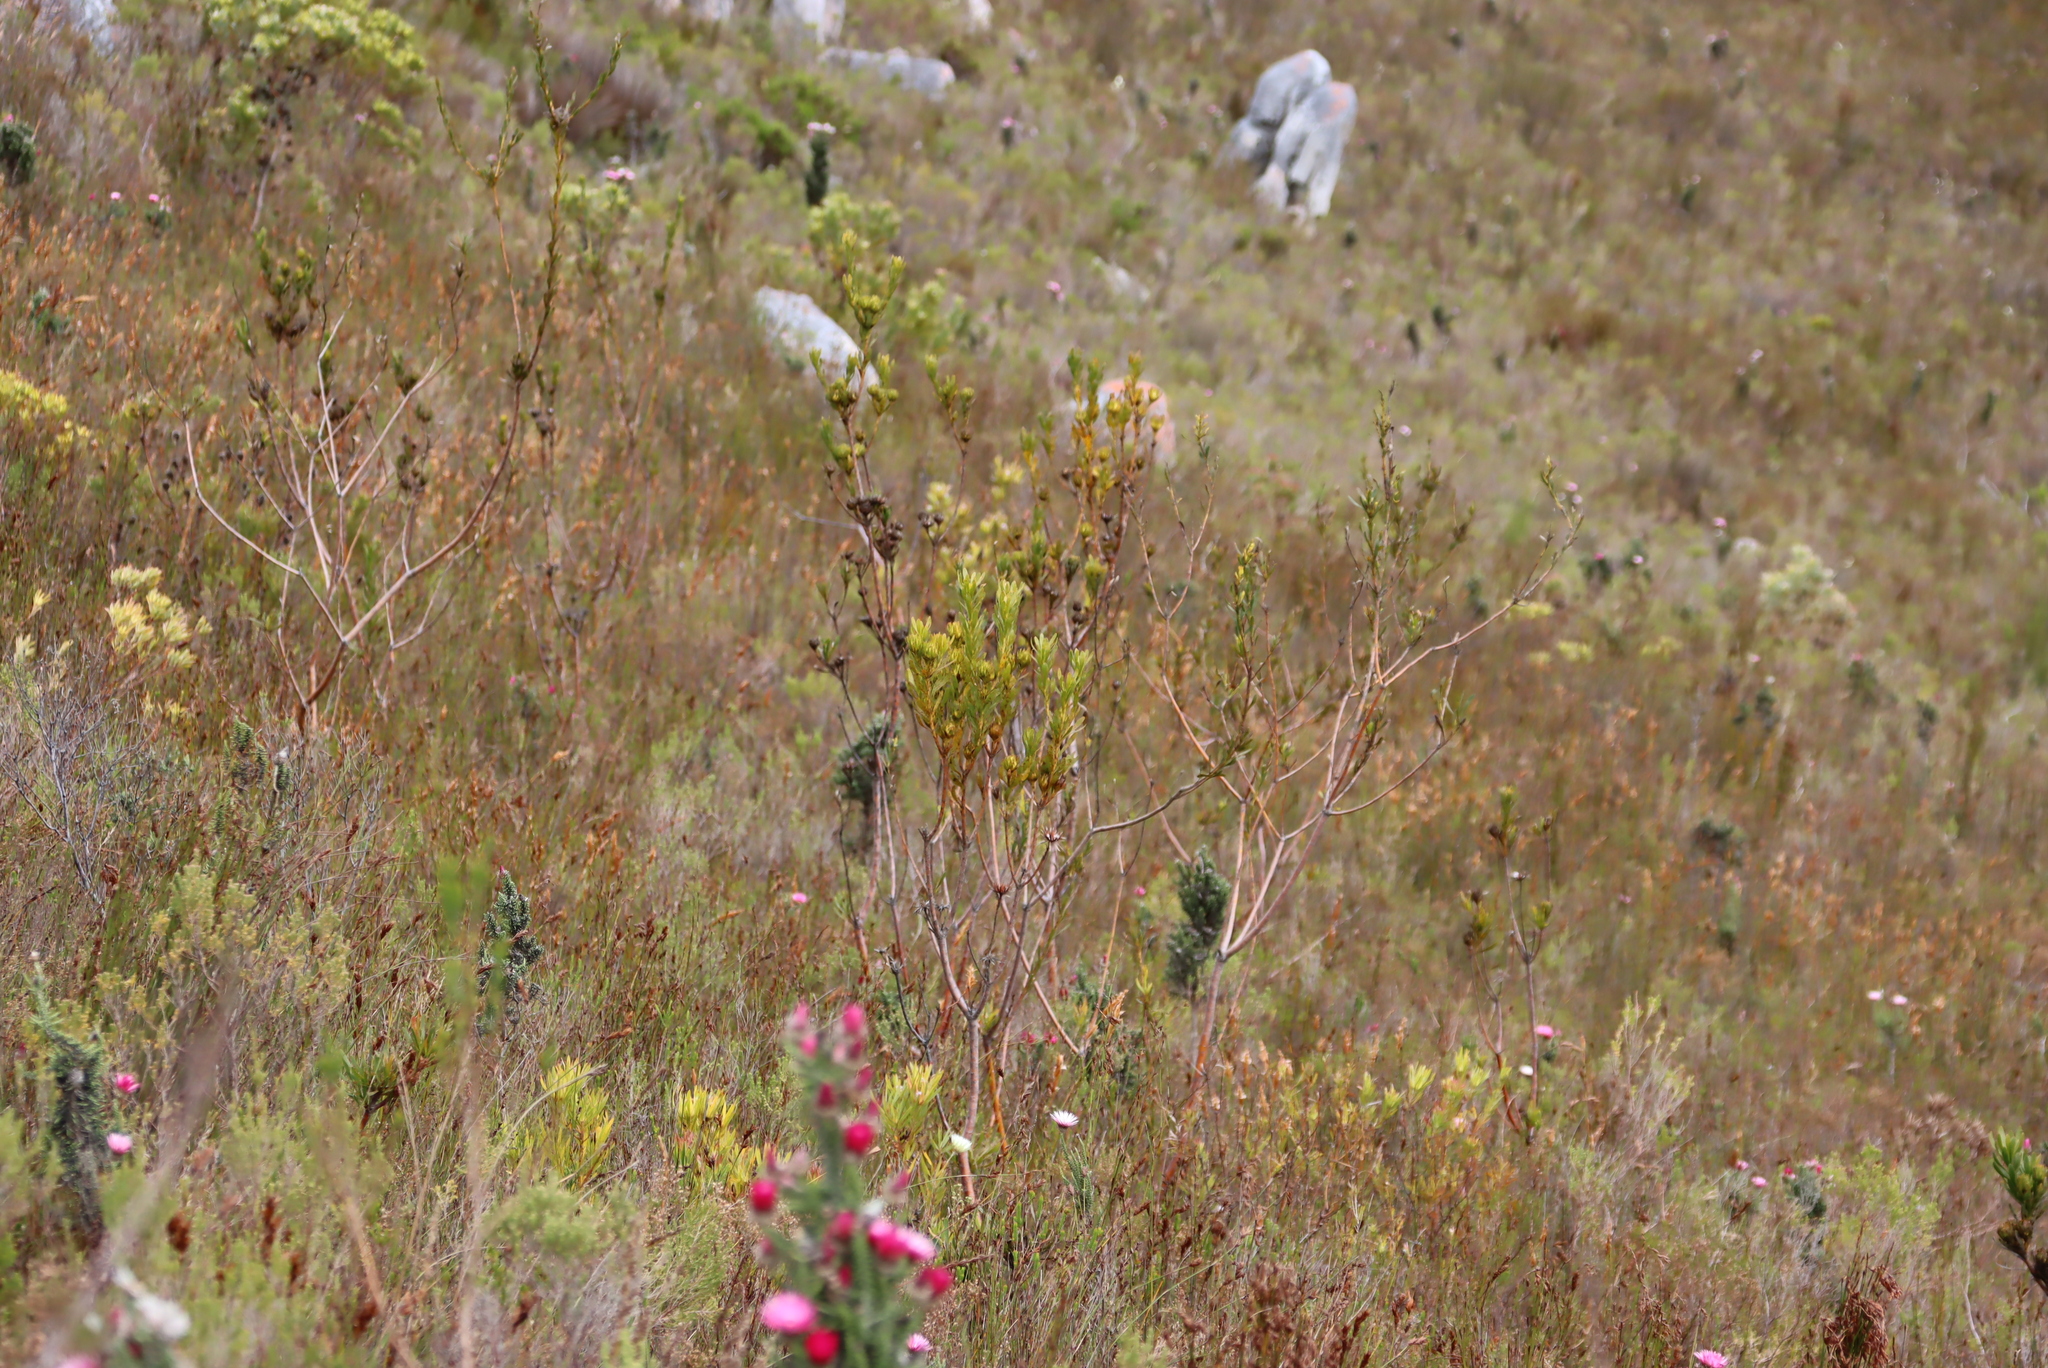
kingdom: Plantae
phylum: Tracheophyta
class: Magnoliopsida
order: Proteales
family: Proteaceae
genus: Aulax
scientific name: Aulax umbellata
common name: Broad-leaf featherbush
